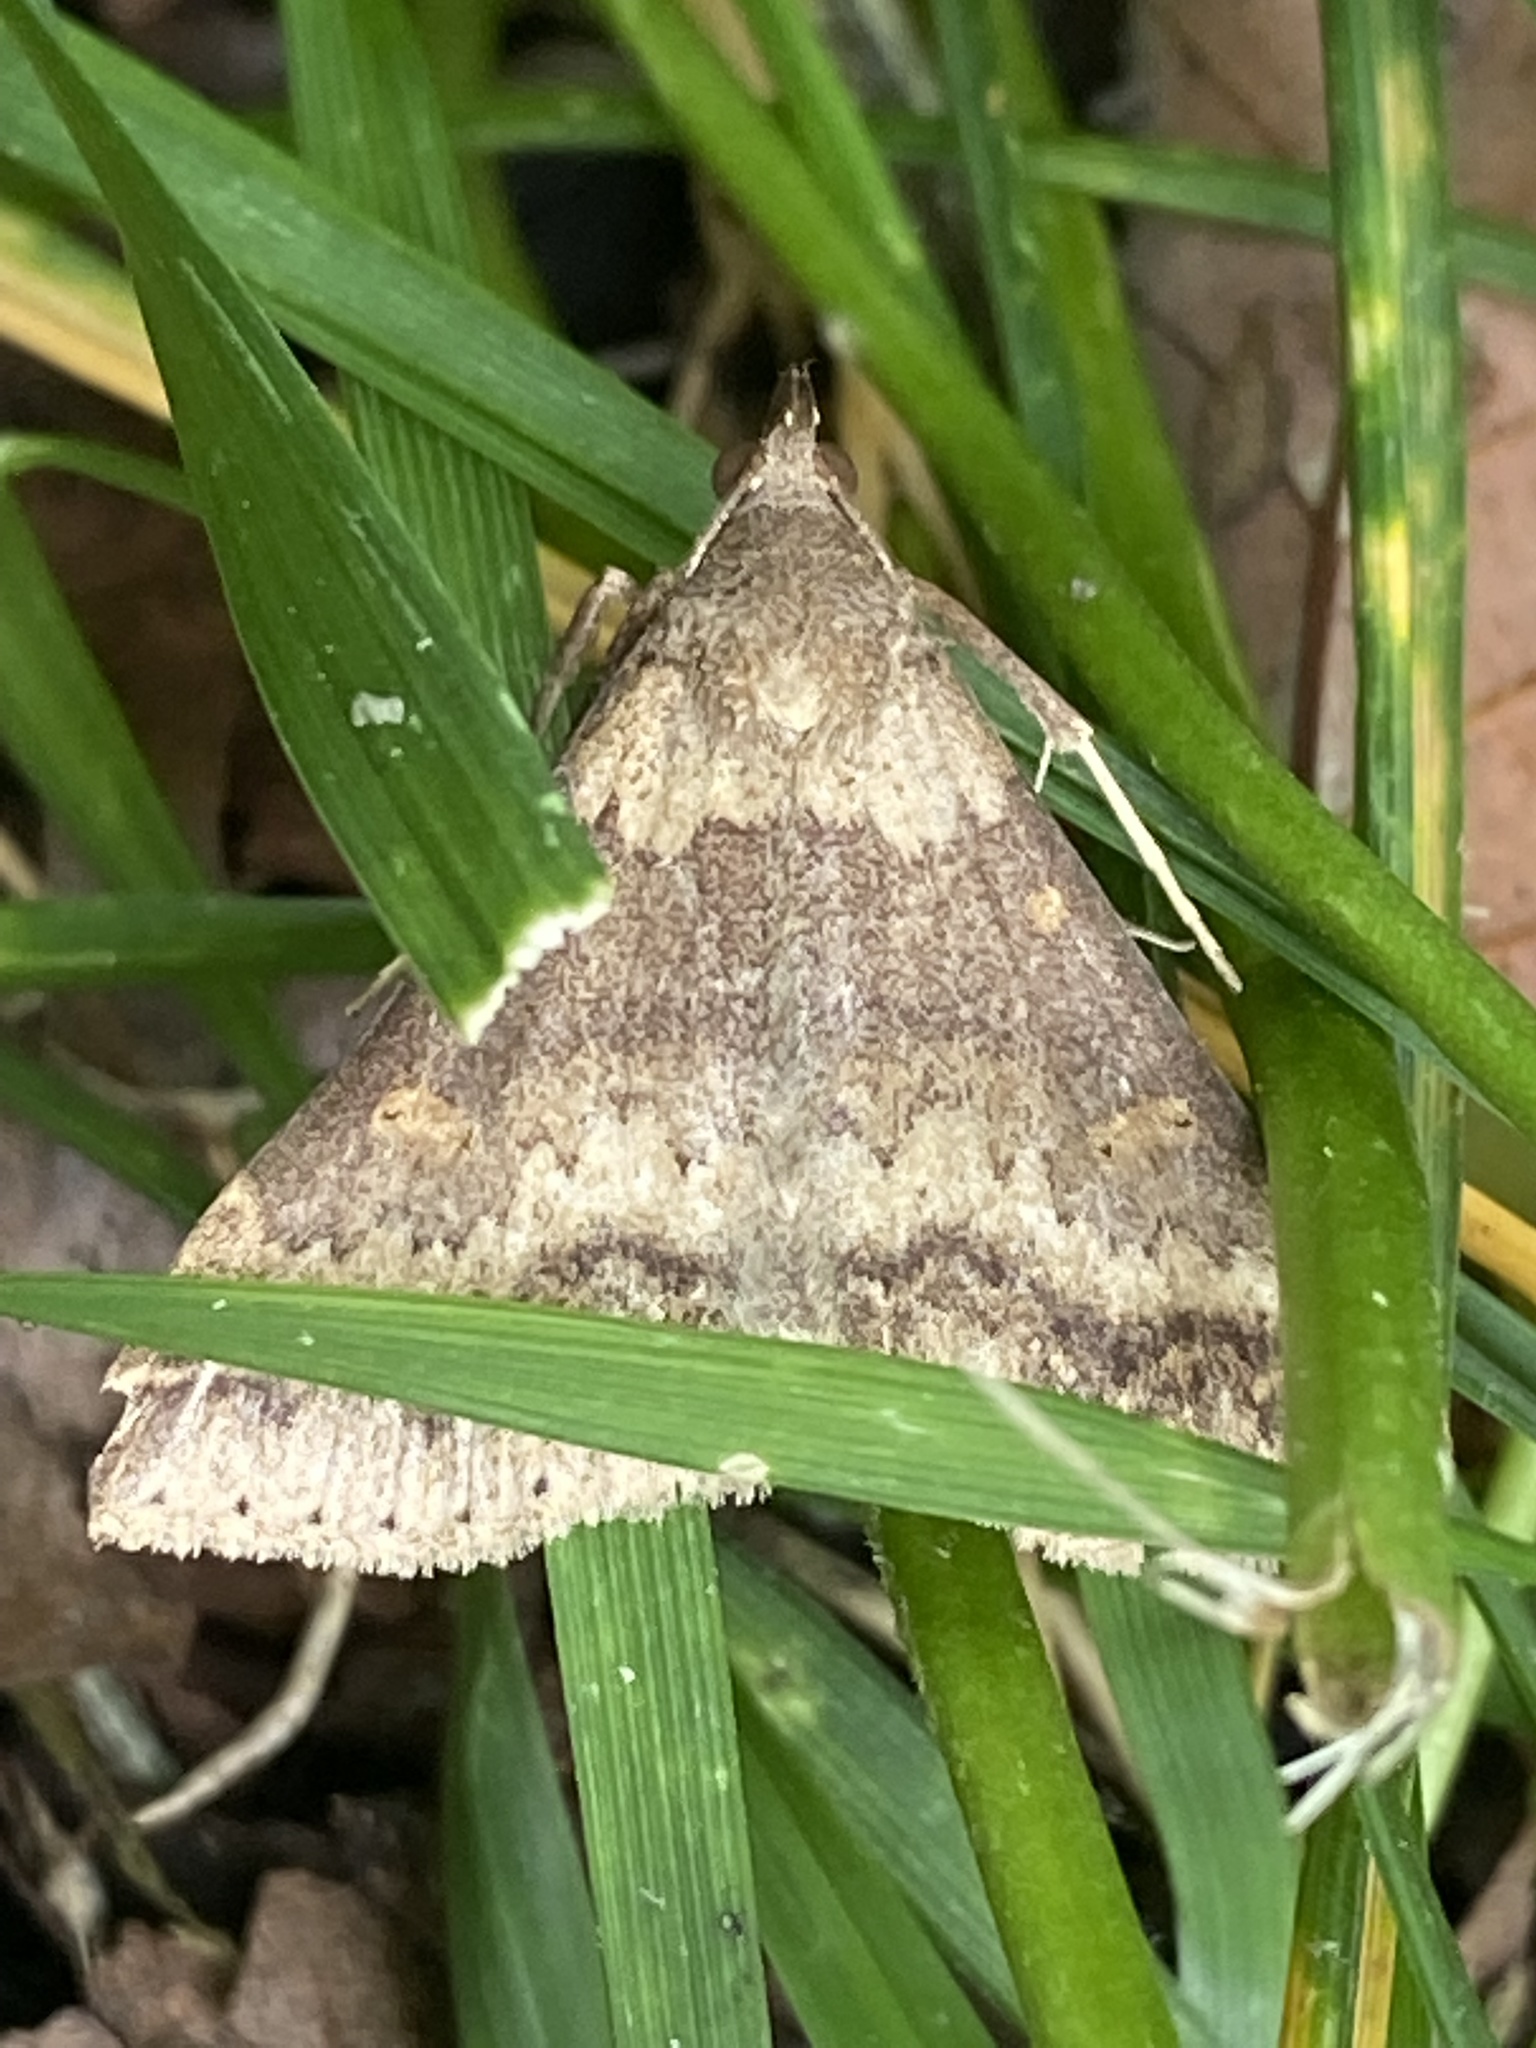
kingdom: Animalia
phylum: Arthropoda
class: Insecta
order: Lepidoptera
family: Erebidae
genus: Renia
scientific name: Renia discoloralis
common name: Discolored renia moth
